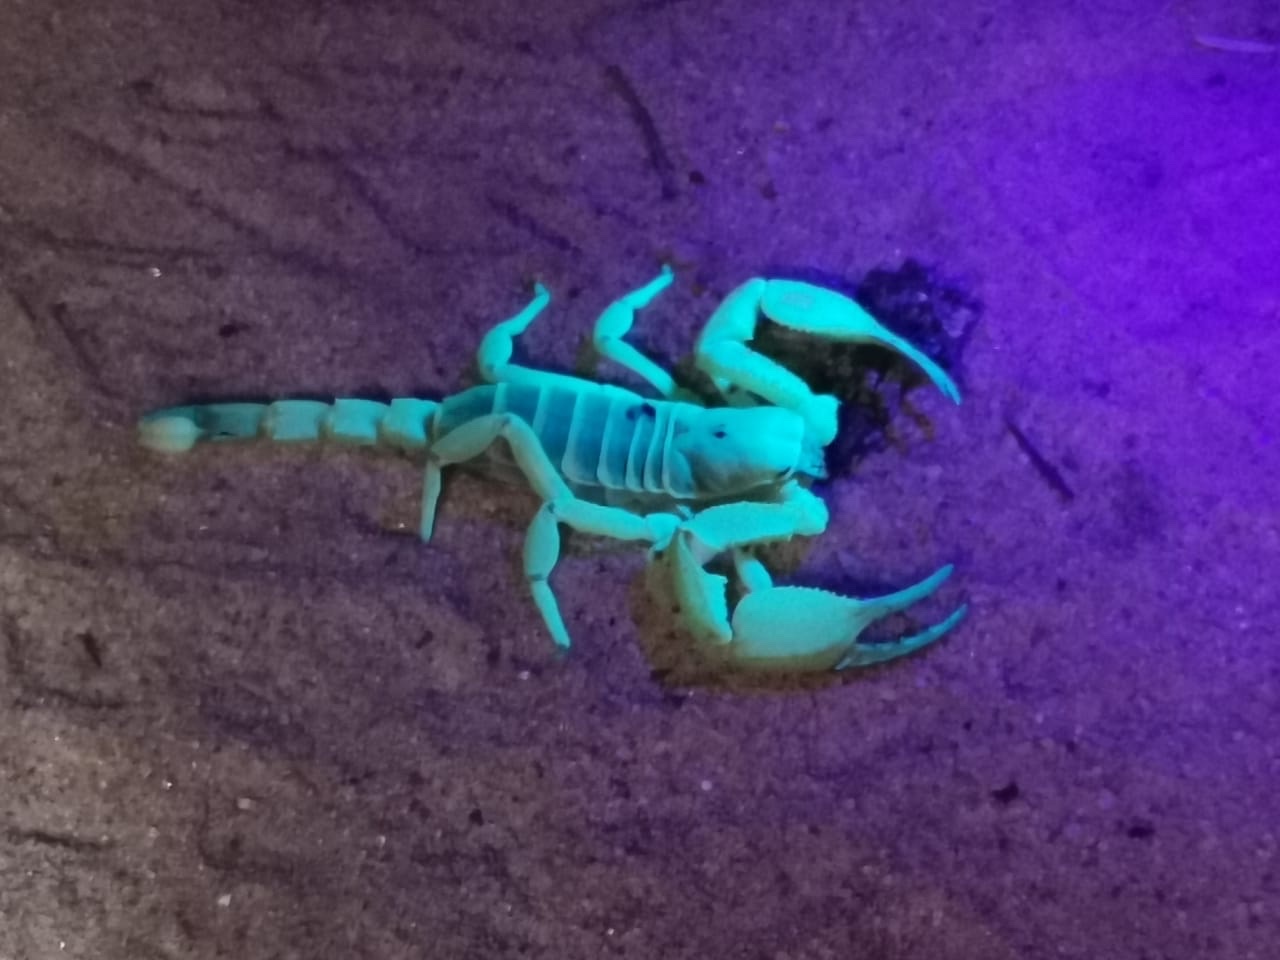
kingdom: Animalia
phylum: Arthropoda
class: Arachnida
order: Scorpiones
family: Scorpionidae
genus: Opistophthalmus
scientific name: Opistophthalmus wahlbergii
